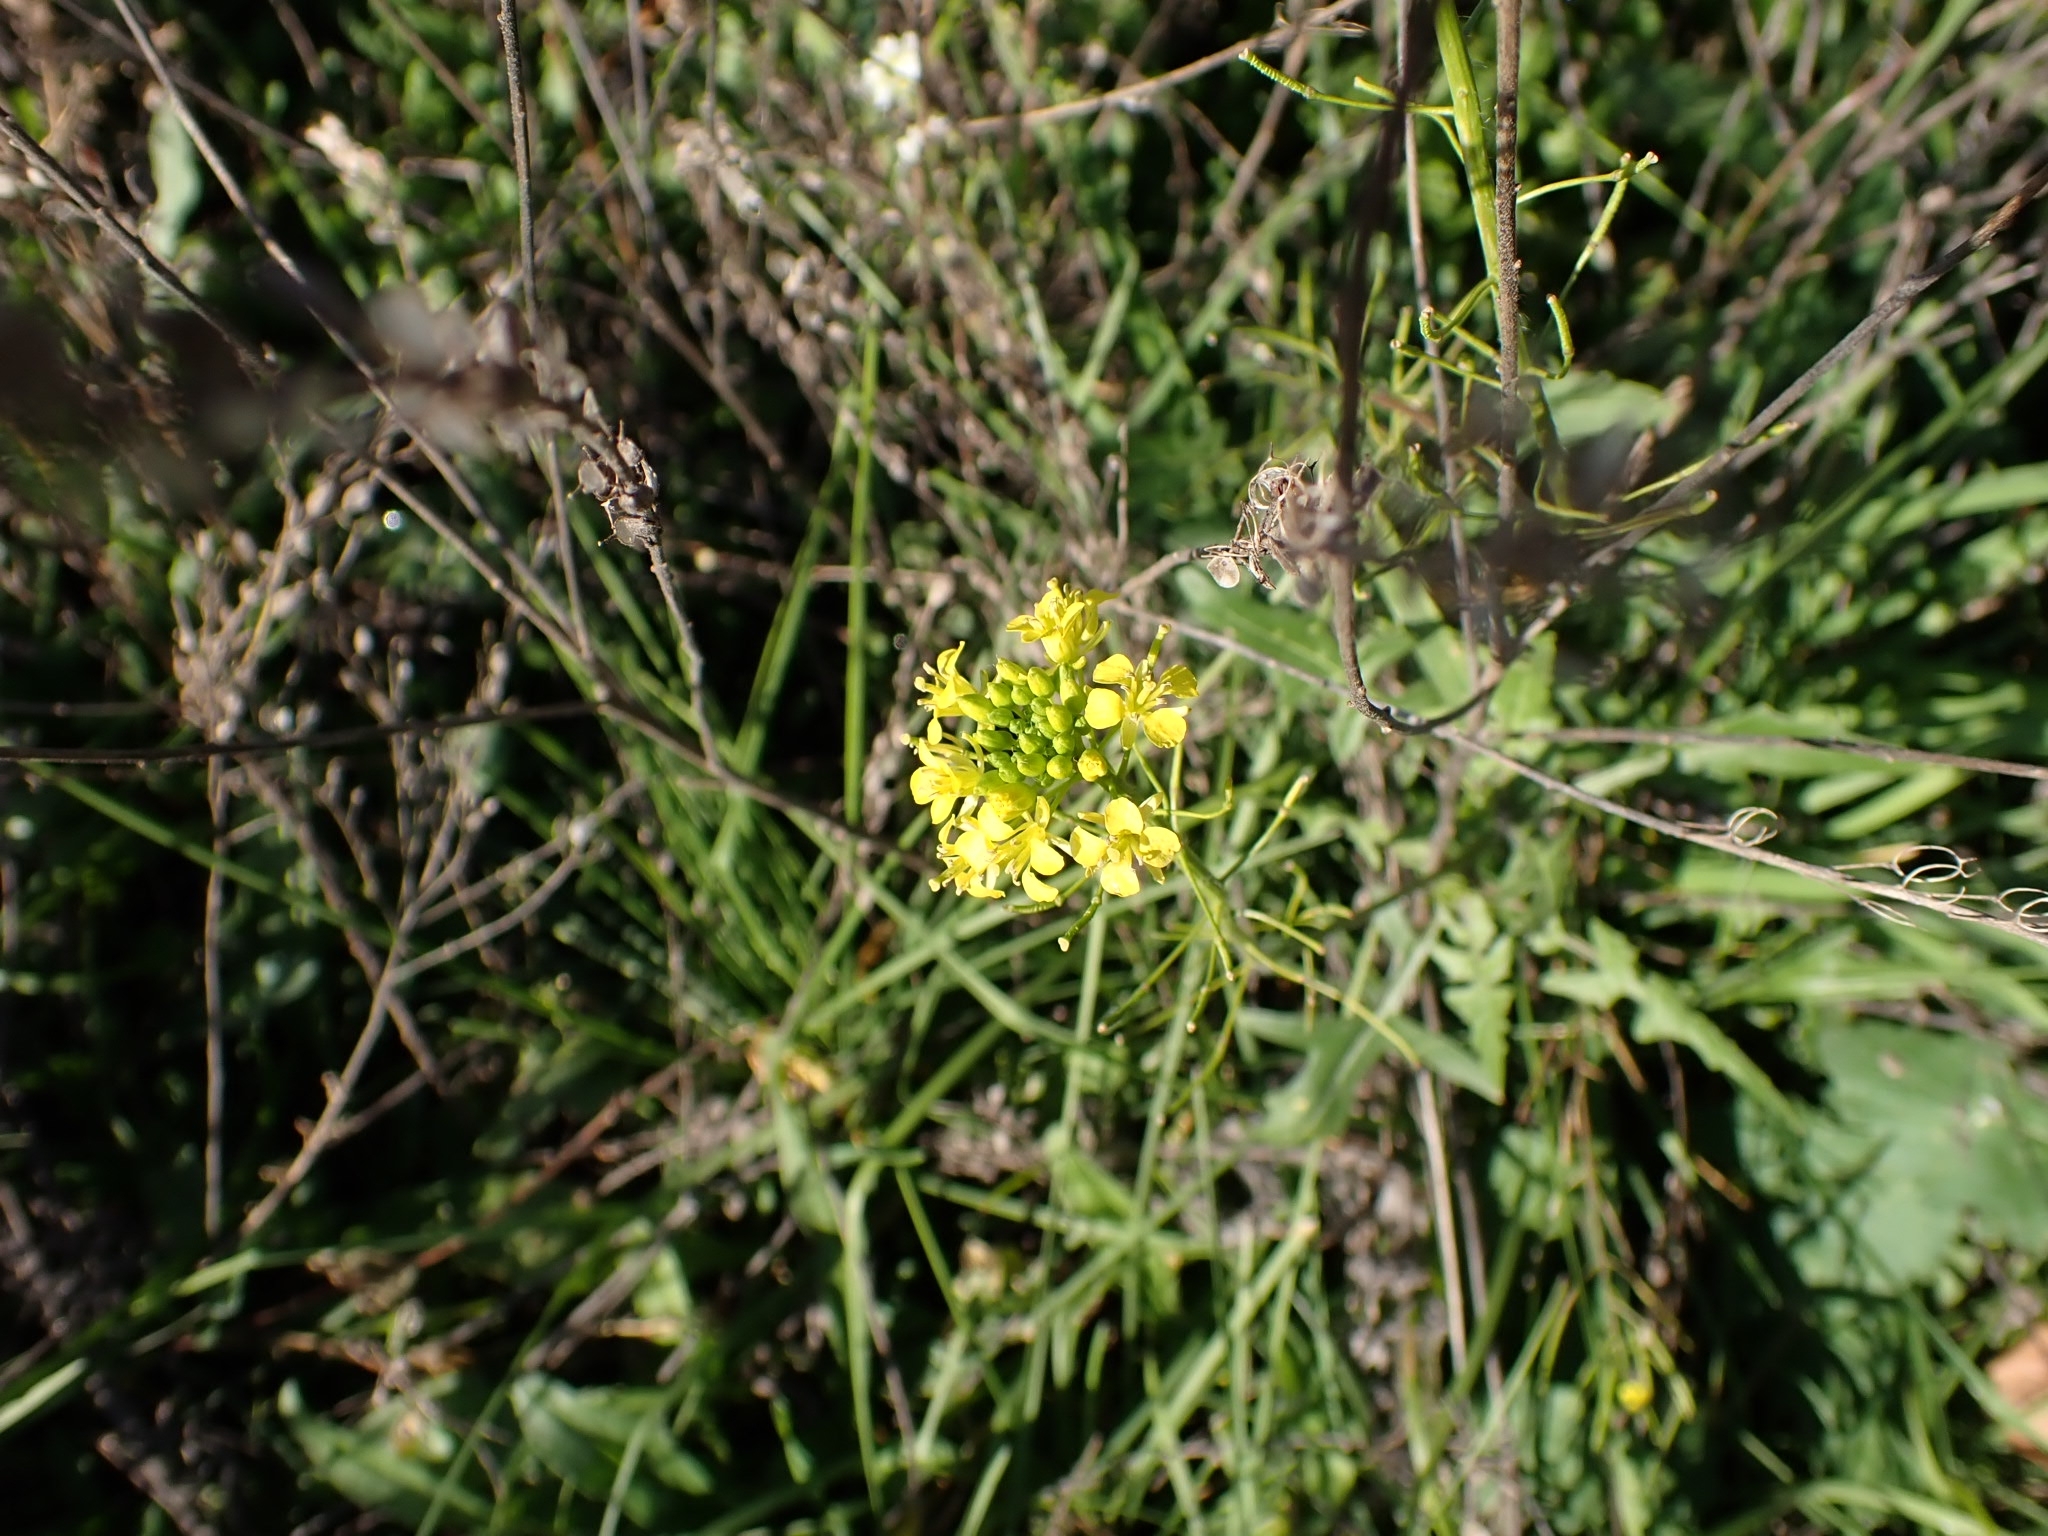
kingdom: Plantae
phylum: Tracheophyta
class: Magnoliopsida
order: Brassicales
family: Brassicaceae
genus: Sisymbrium
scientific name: Sisymbrium loeselii
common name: False london-rocket
